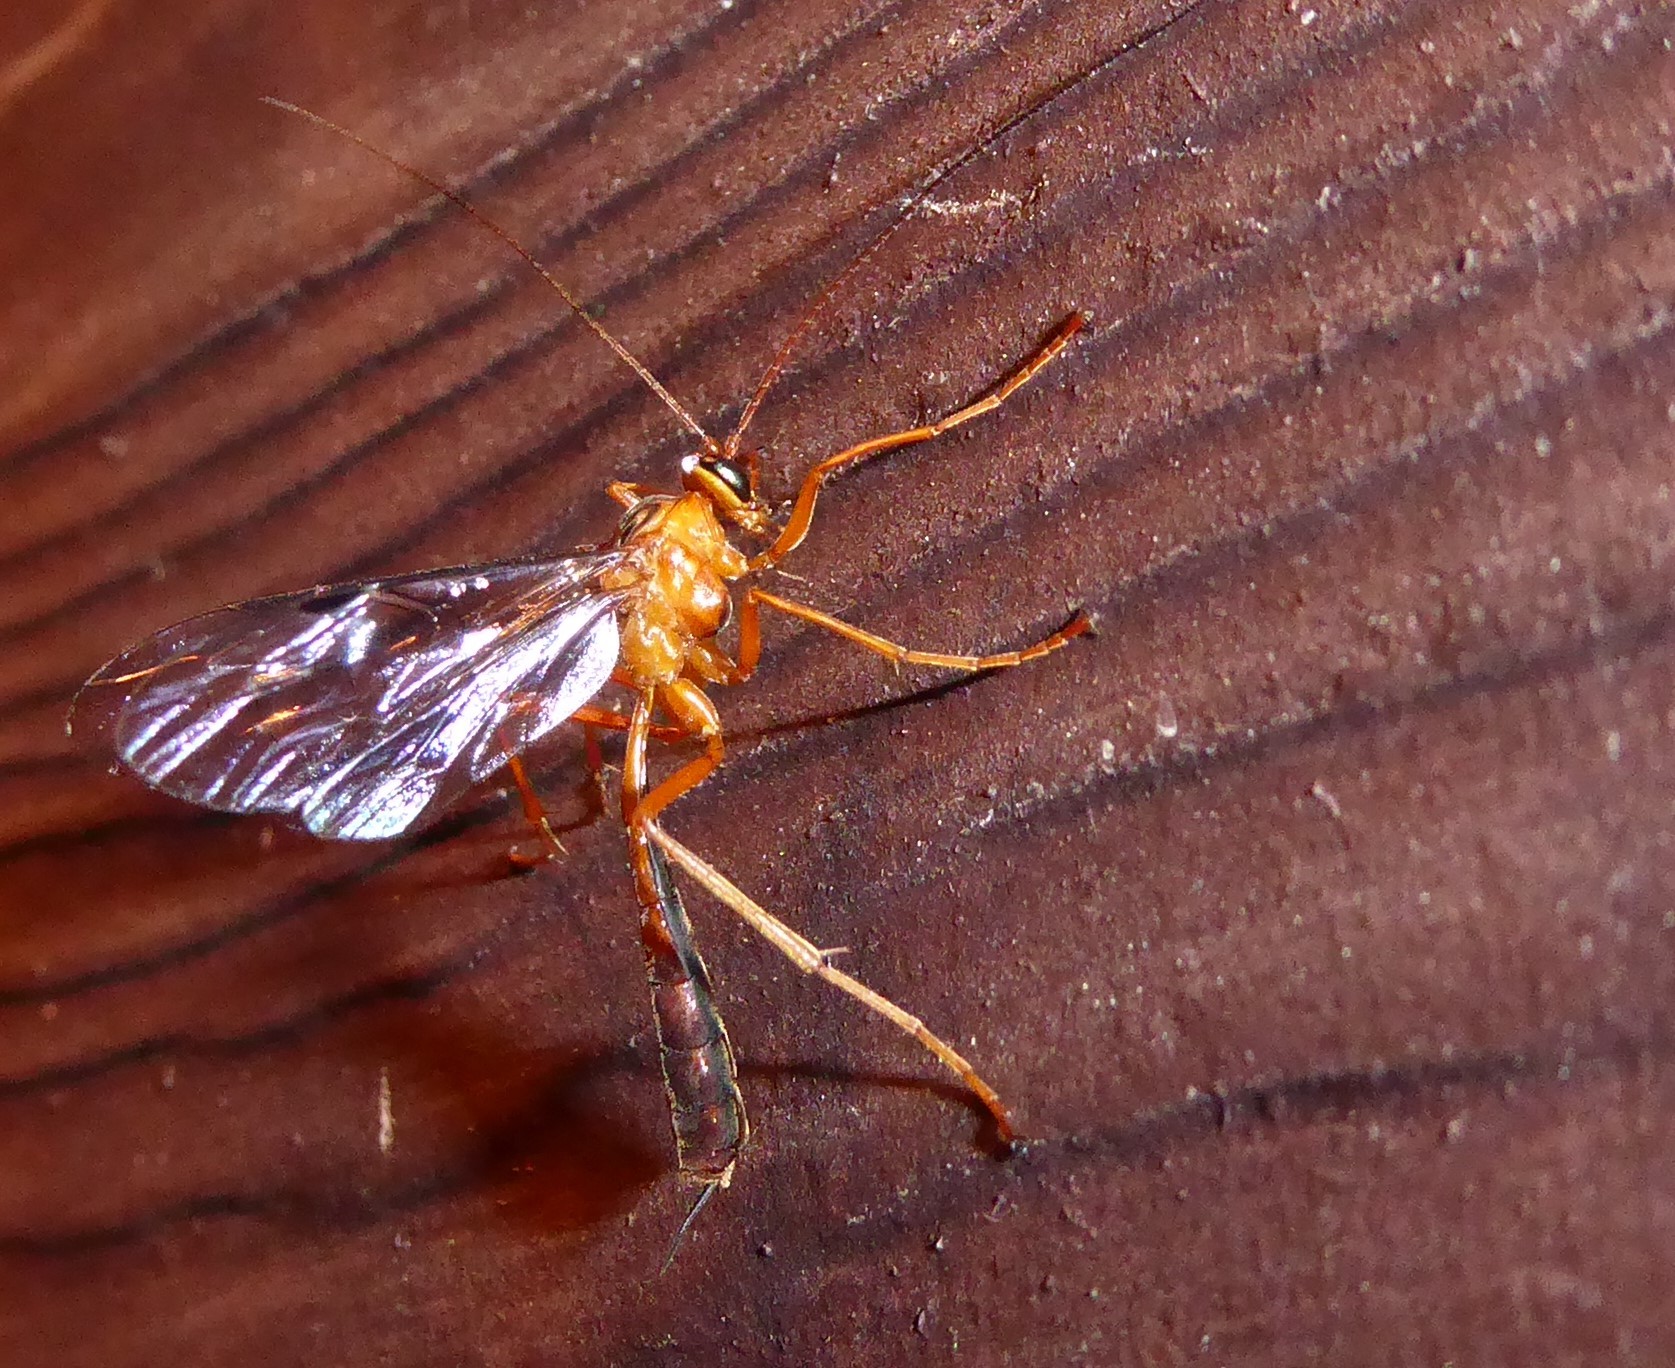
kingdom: Animalia
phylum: Arthropoda
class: Insecta
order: Hymenoptera
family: Ichneumonidae
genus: Netelia
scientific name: Netelia ephippiata
